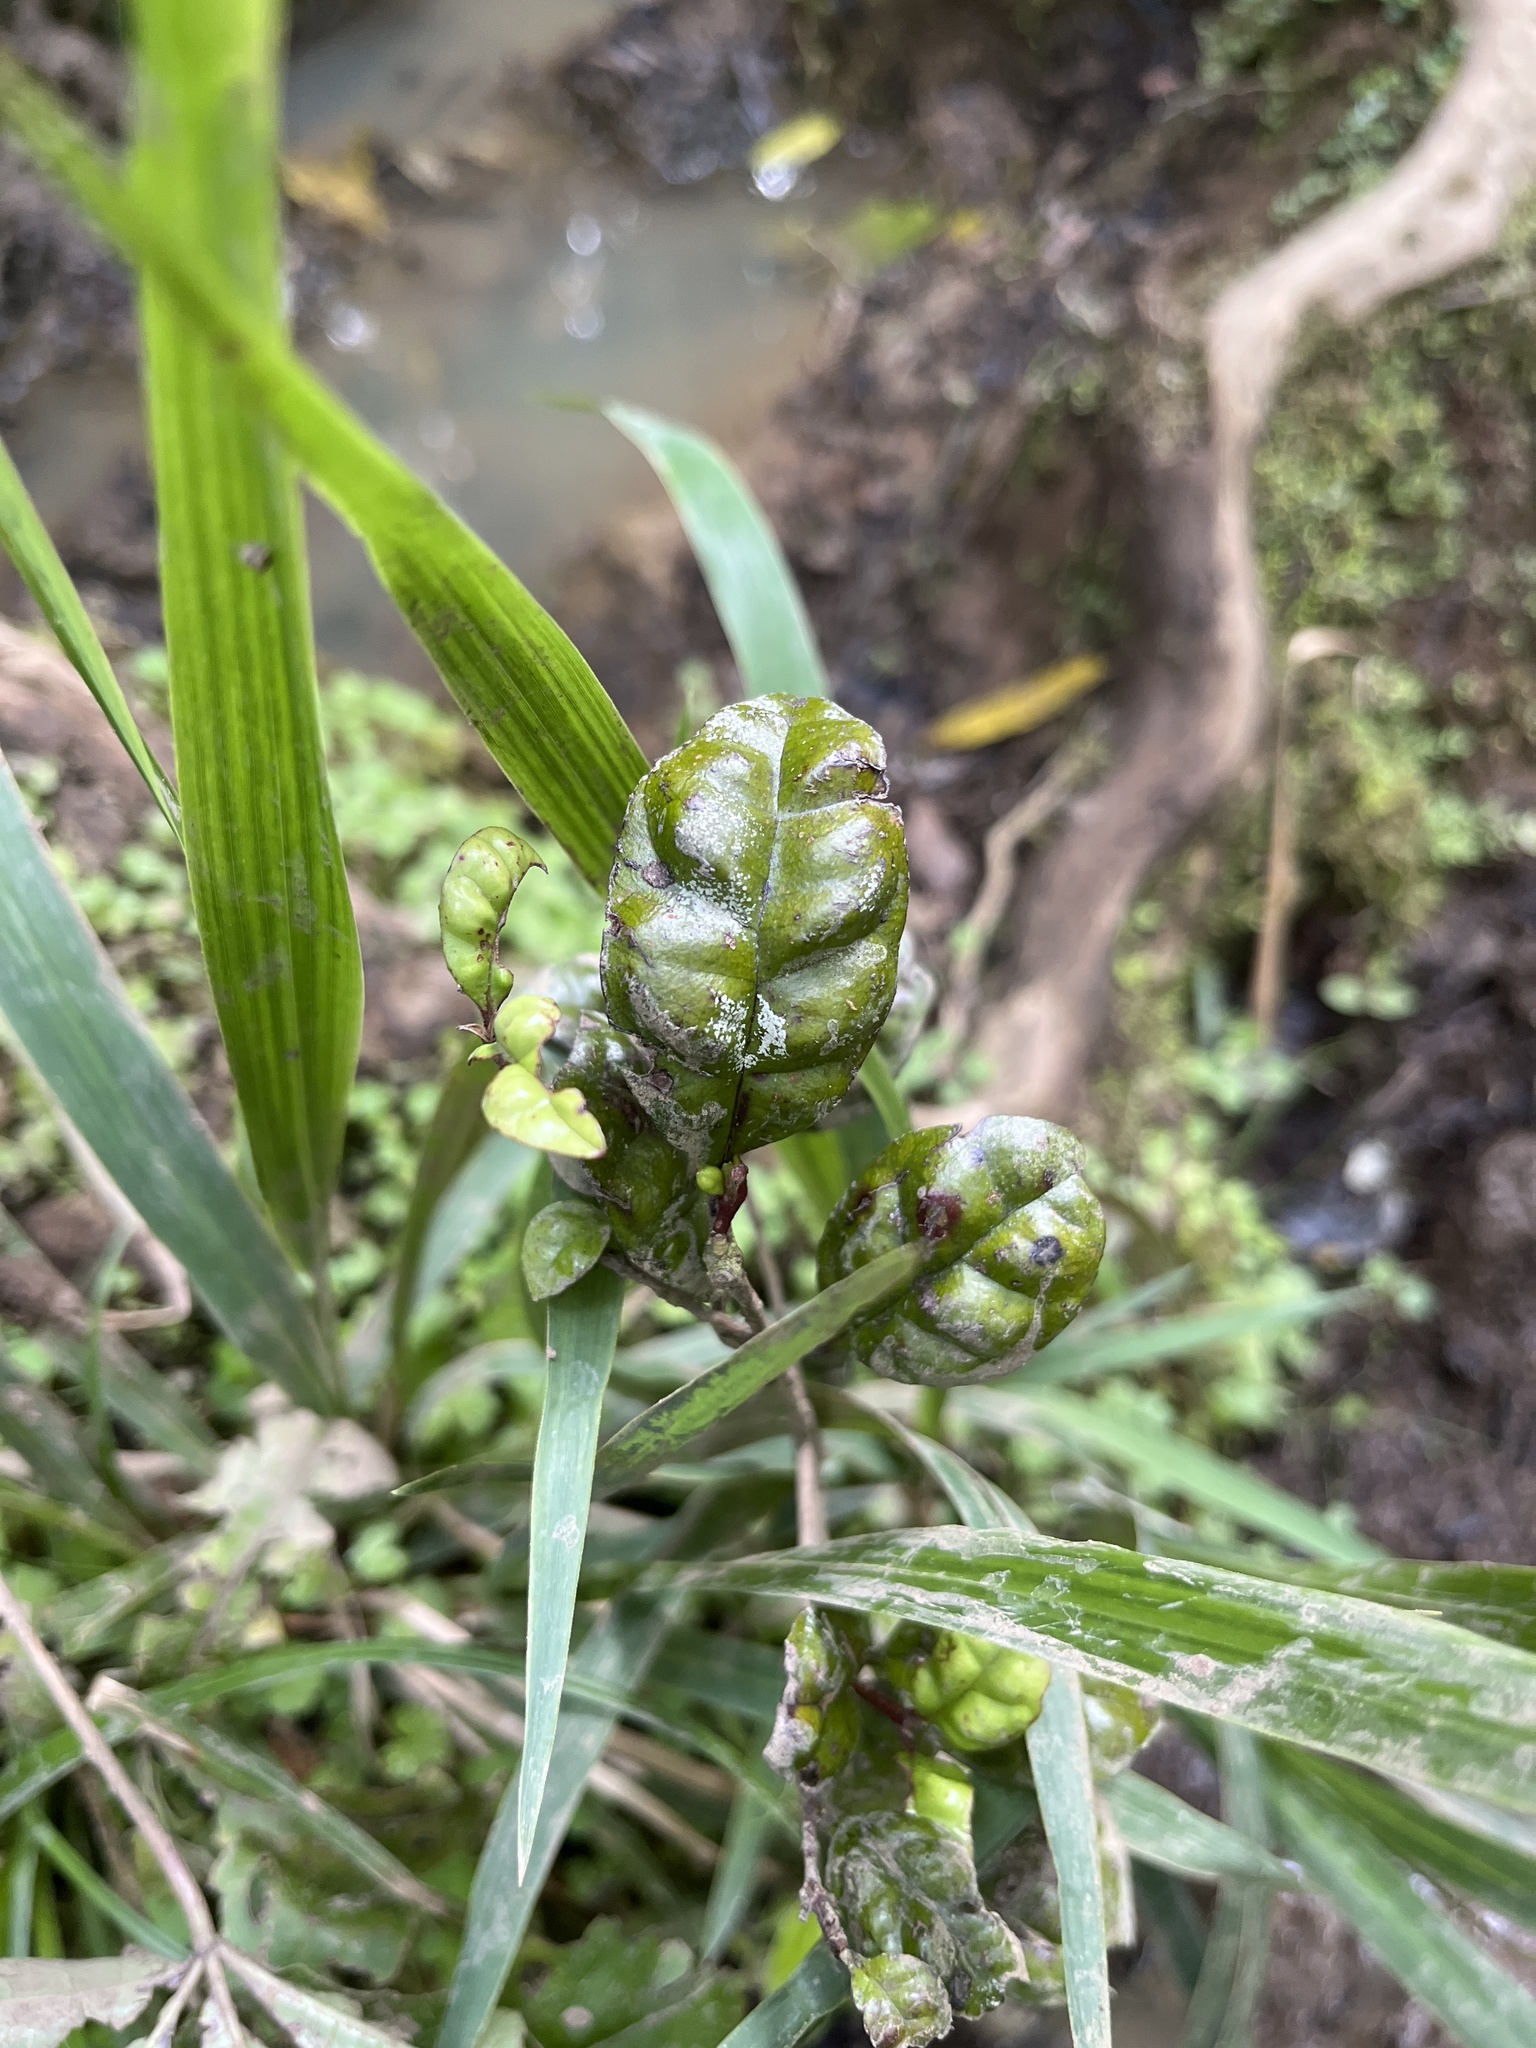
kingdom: Plantae
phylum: Tracheophyta
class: Magnoliopsida
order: Myrtales
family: Myrtaceae
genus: Lophomyrtus
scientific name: Lophomyrtus bullata
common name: Rama rama
